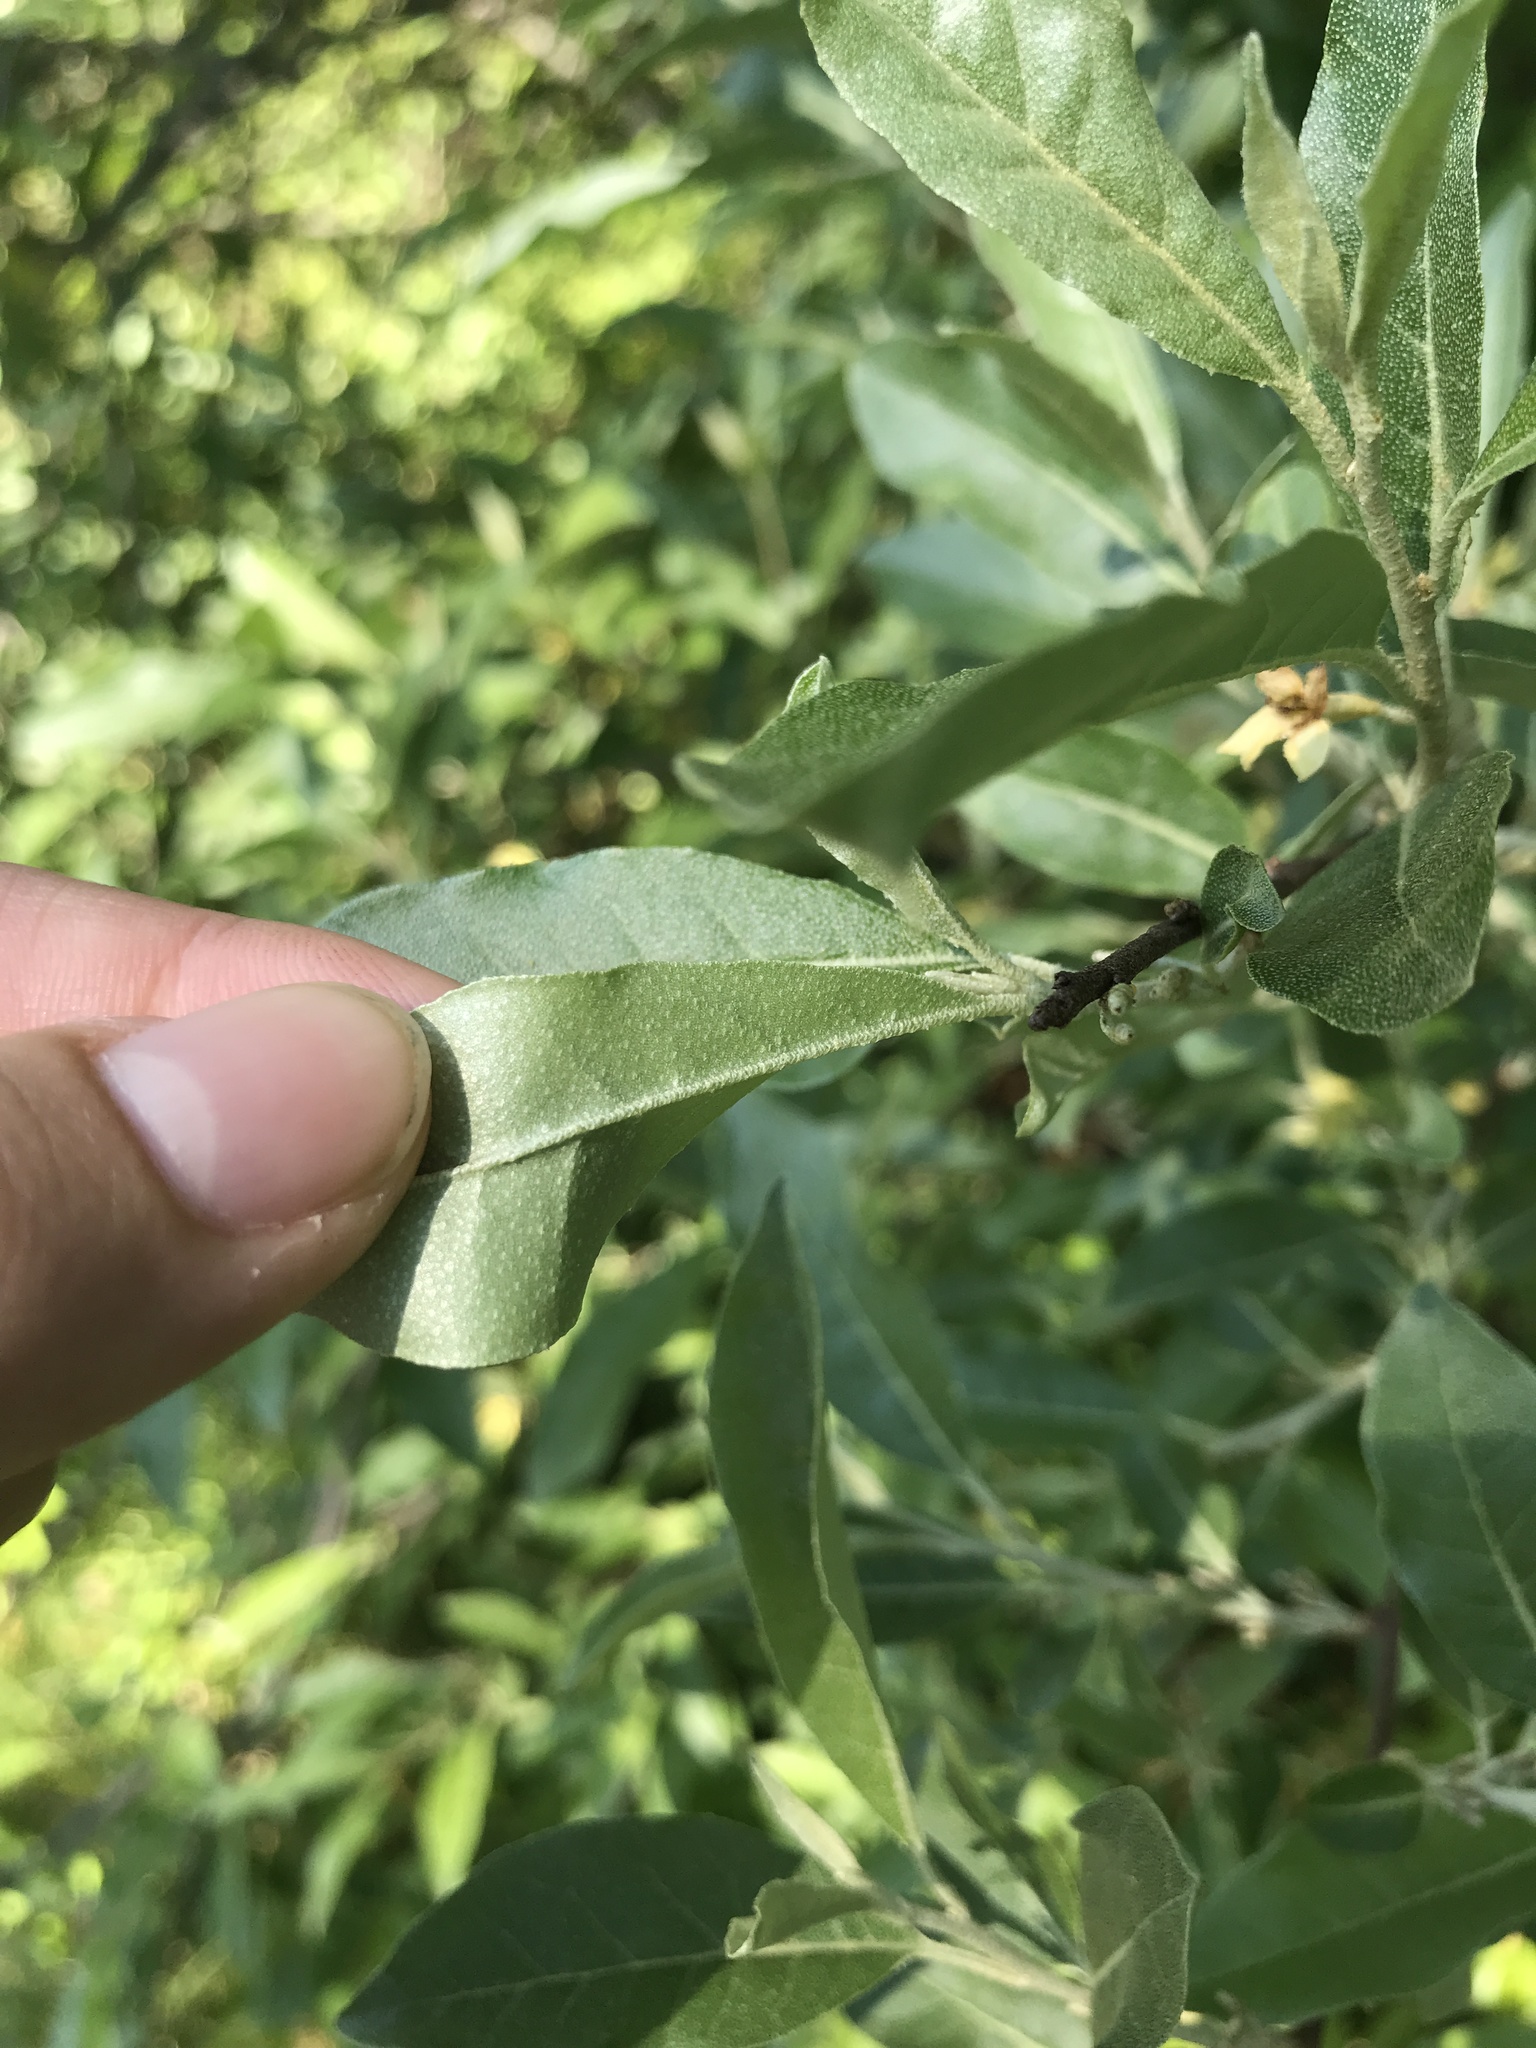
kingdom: Plantae
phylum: Tracheophyta
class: Magnoliopsida
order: Rosales
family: Elaeagnaceae
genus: Elaeagnus
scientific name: Elaeagnus umbellata
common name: Autumn olive
